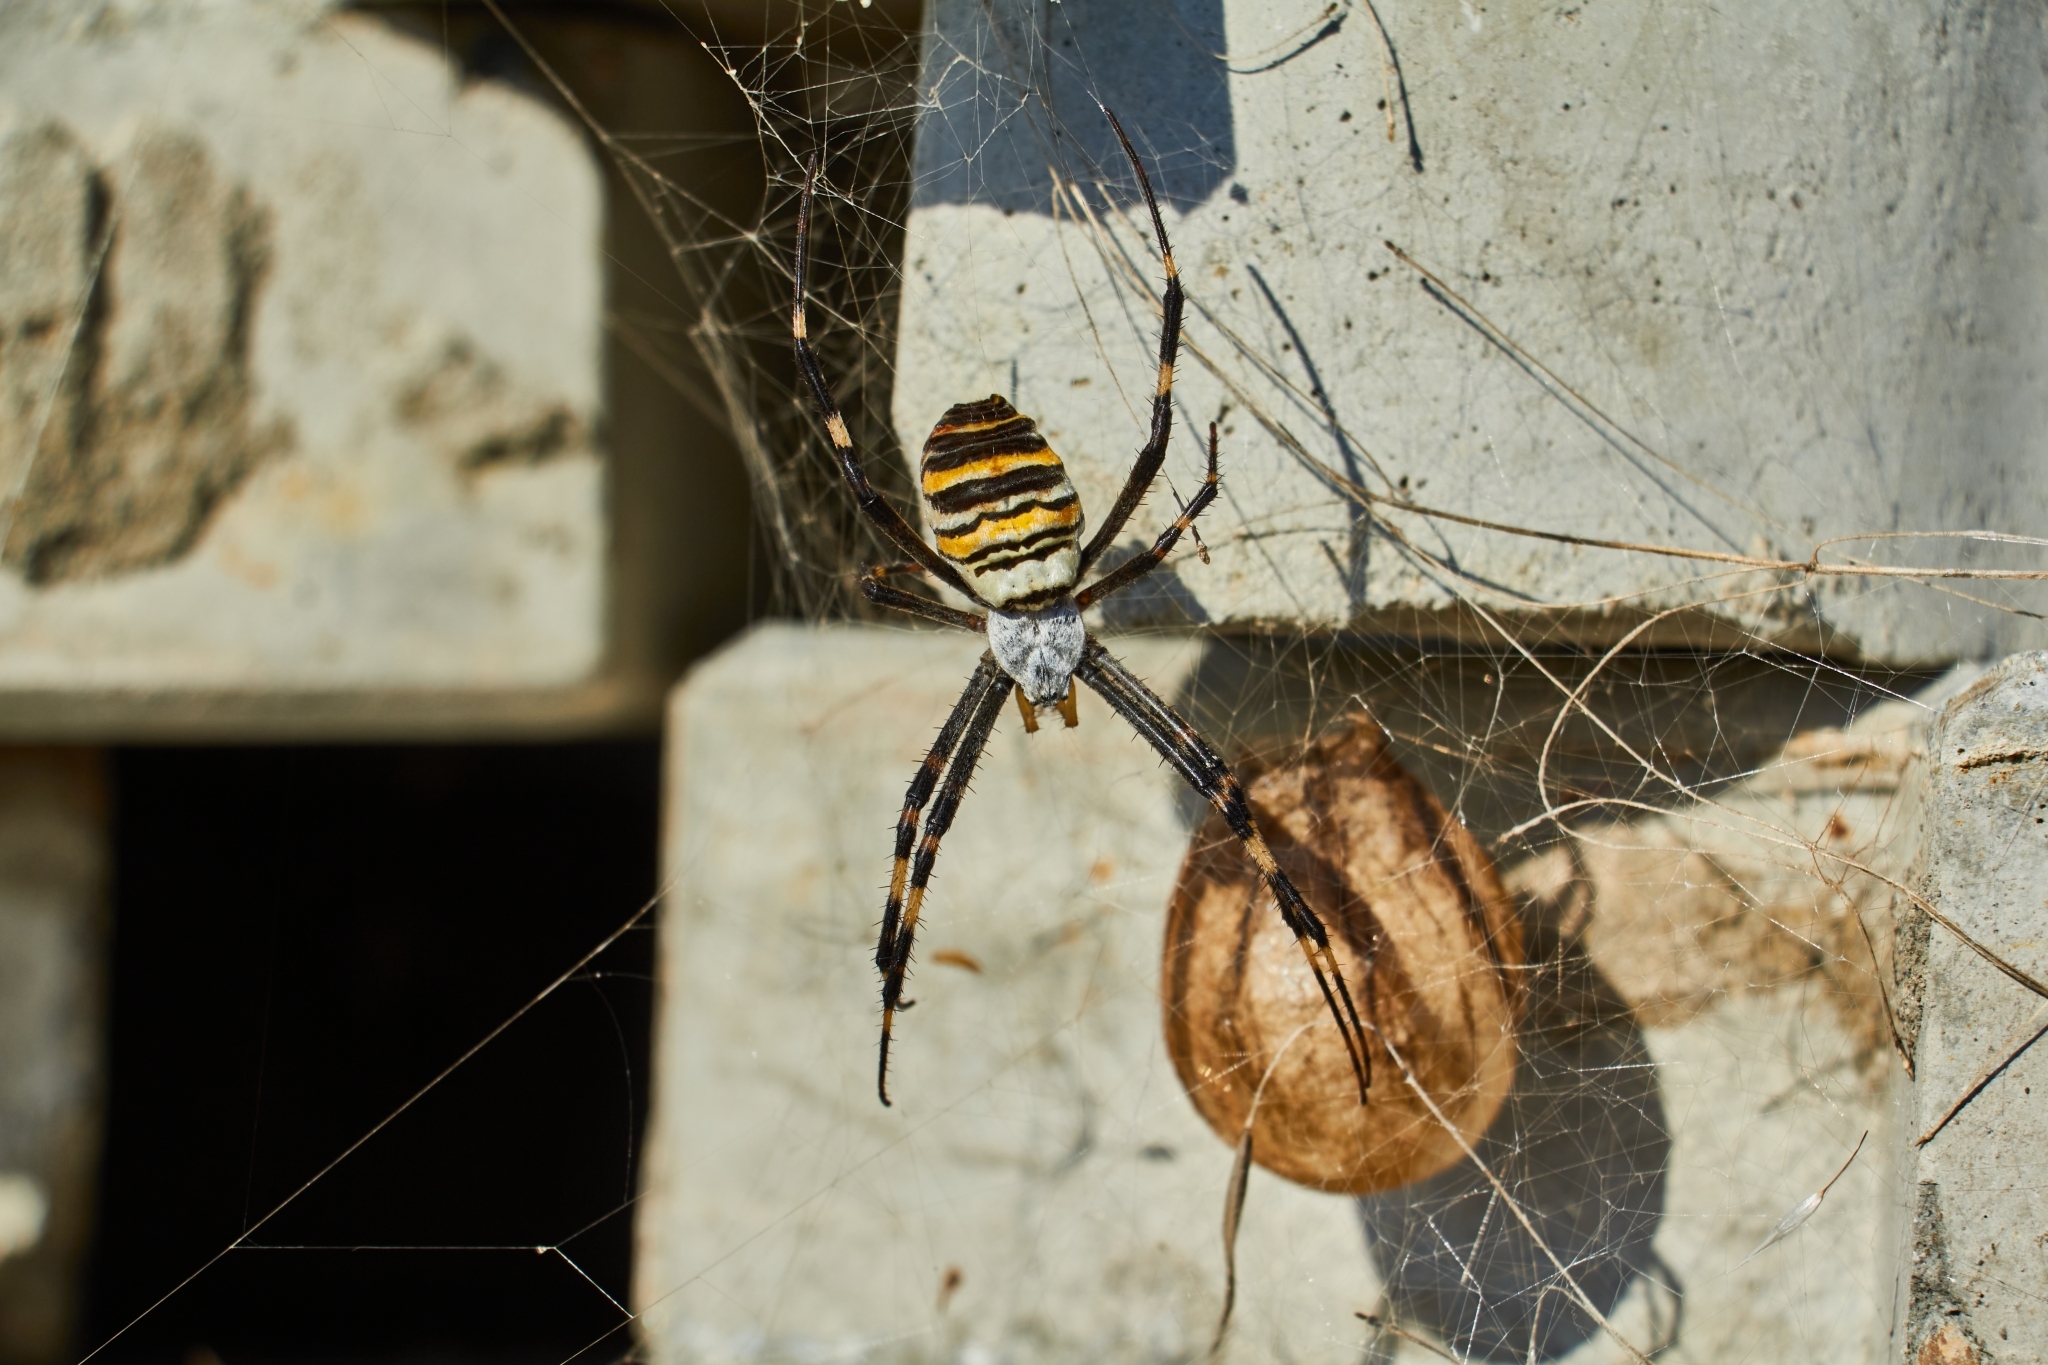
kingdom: Animalia
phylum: Arthropoda
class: Arachnida
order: Araneae
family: Araneidae
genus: Argiope
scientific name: Argiope bruennichi
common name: Wasp spider
